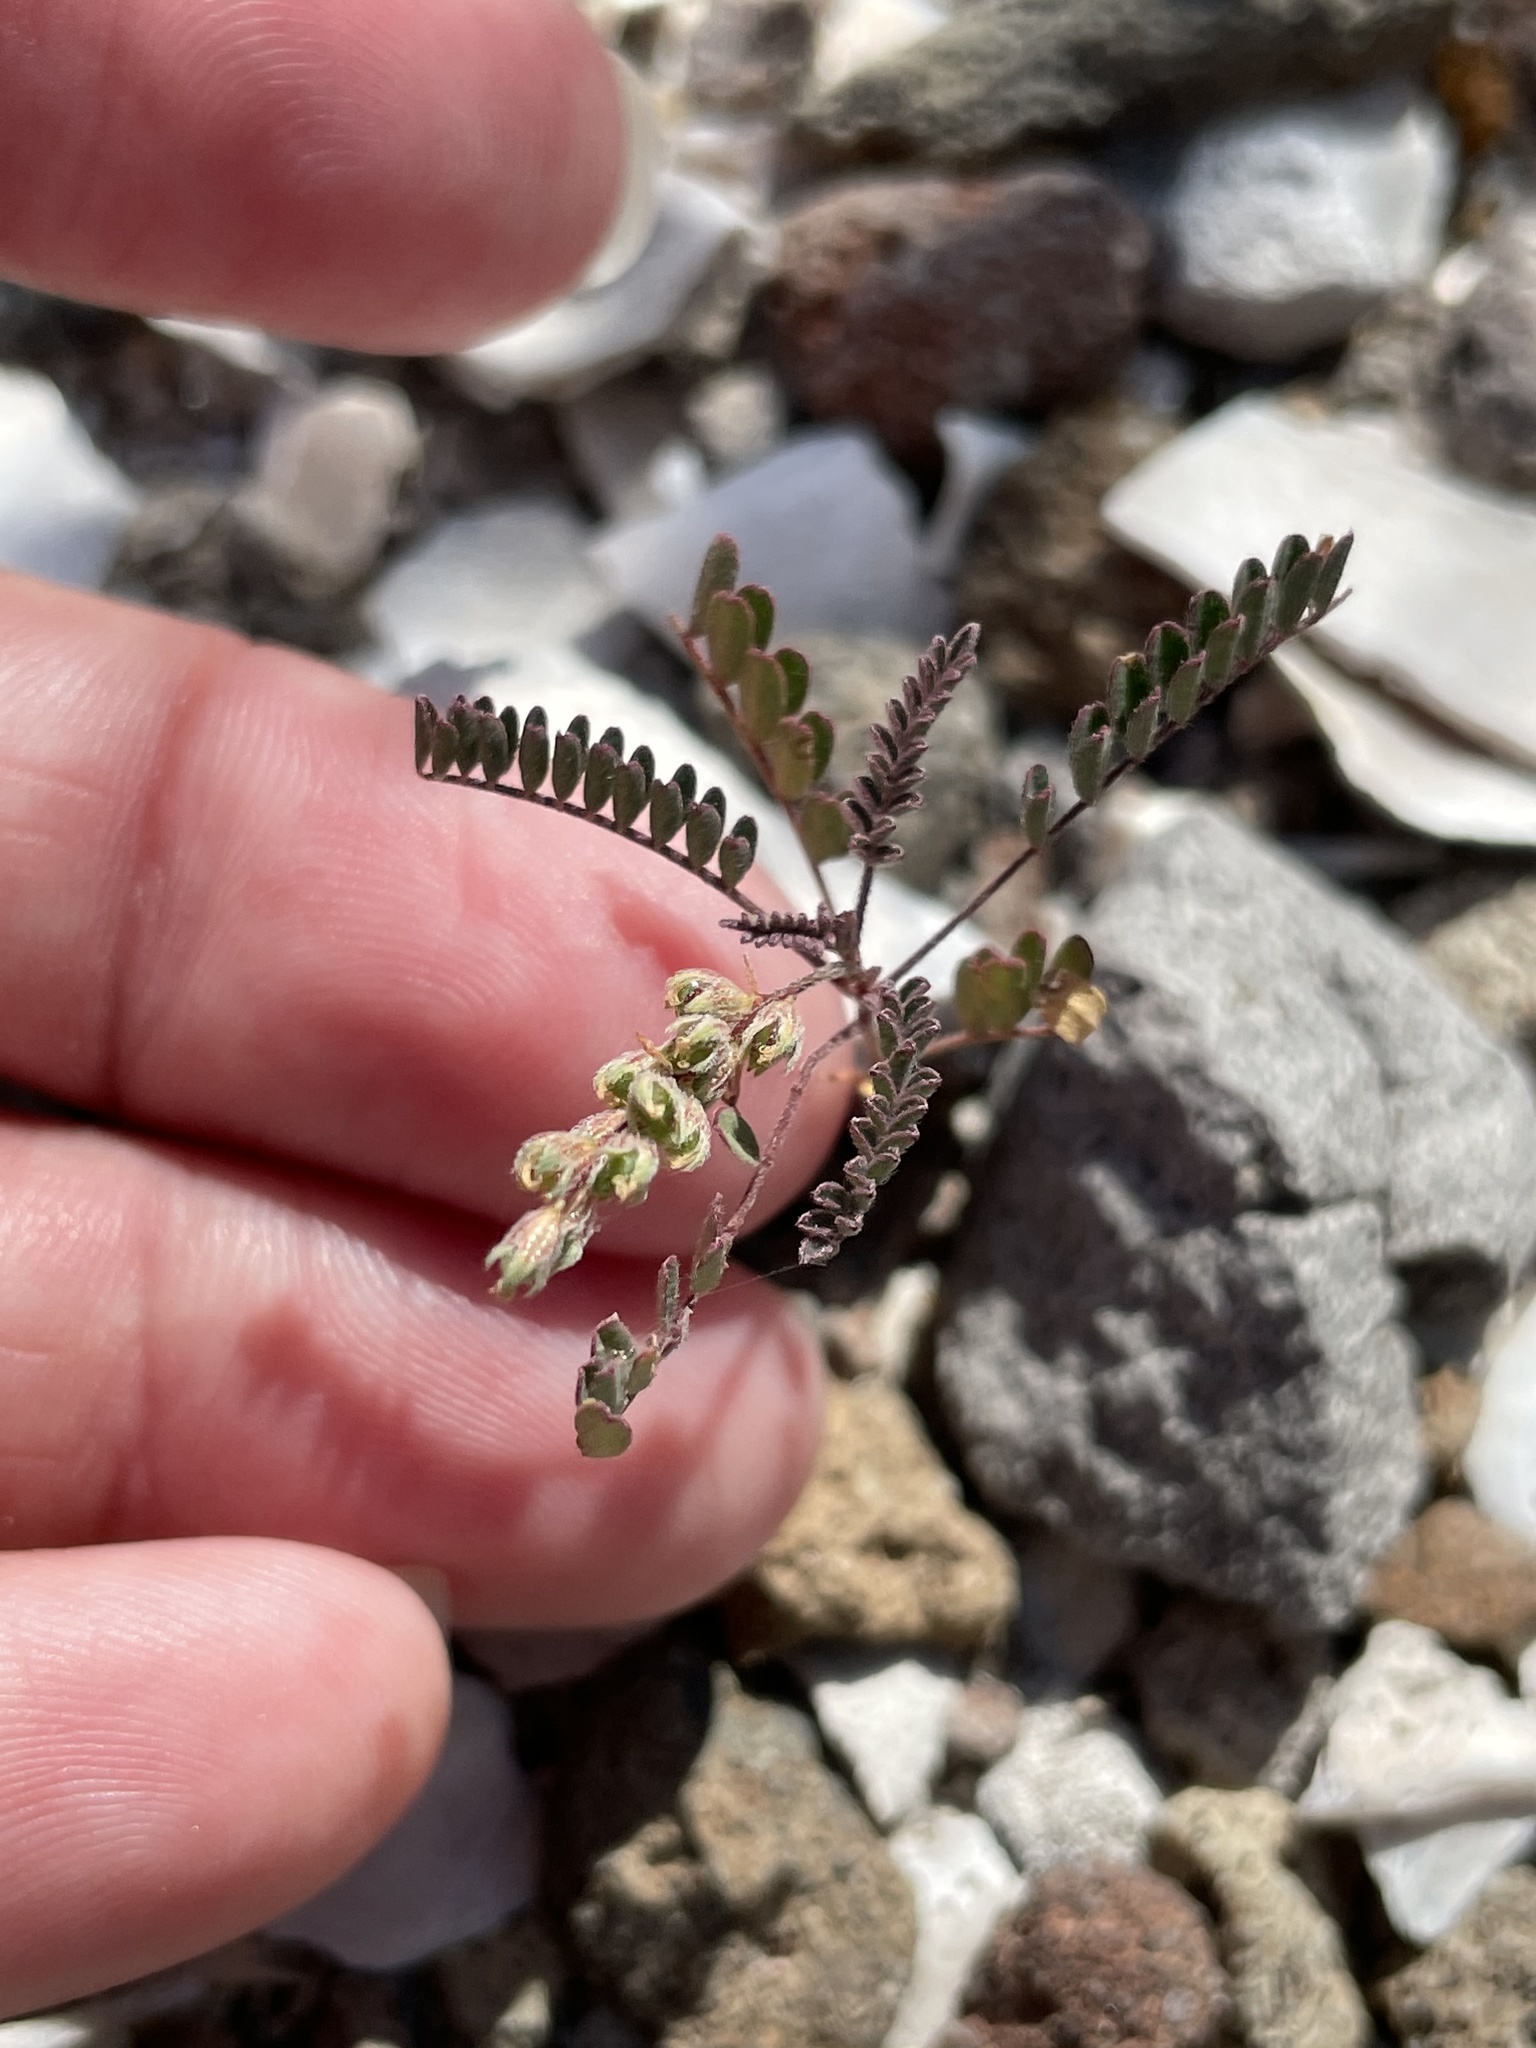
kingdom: Plantae
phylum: Tracheophyta
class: Magnoliopsida
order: Fabales
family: Fabaceae
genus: Marina
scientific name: Marina brevis
